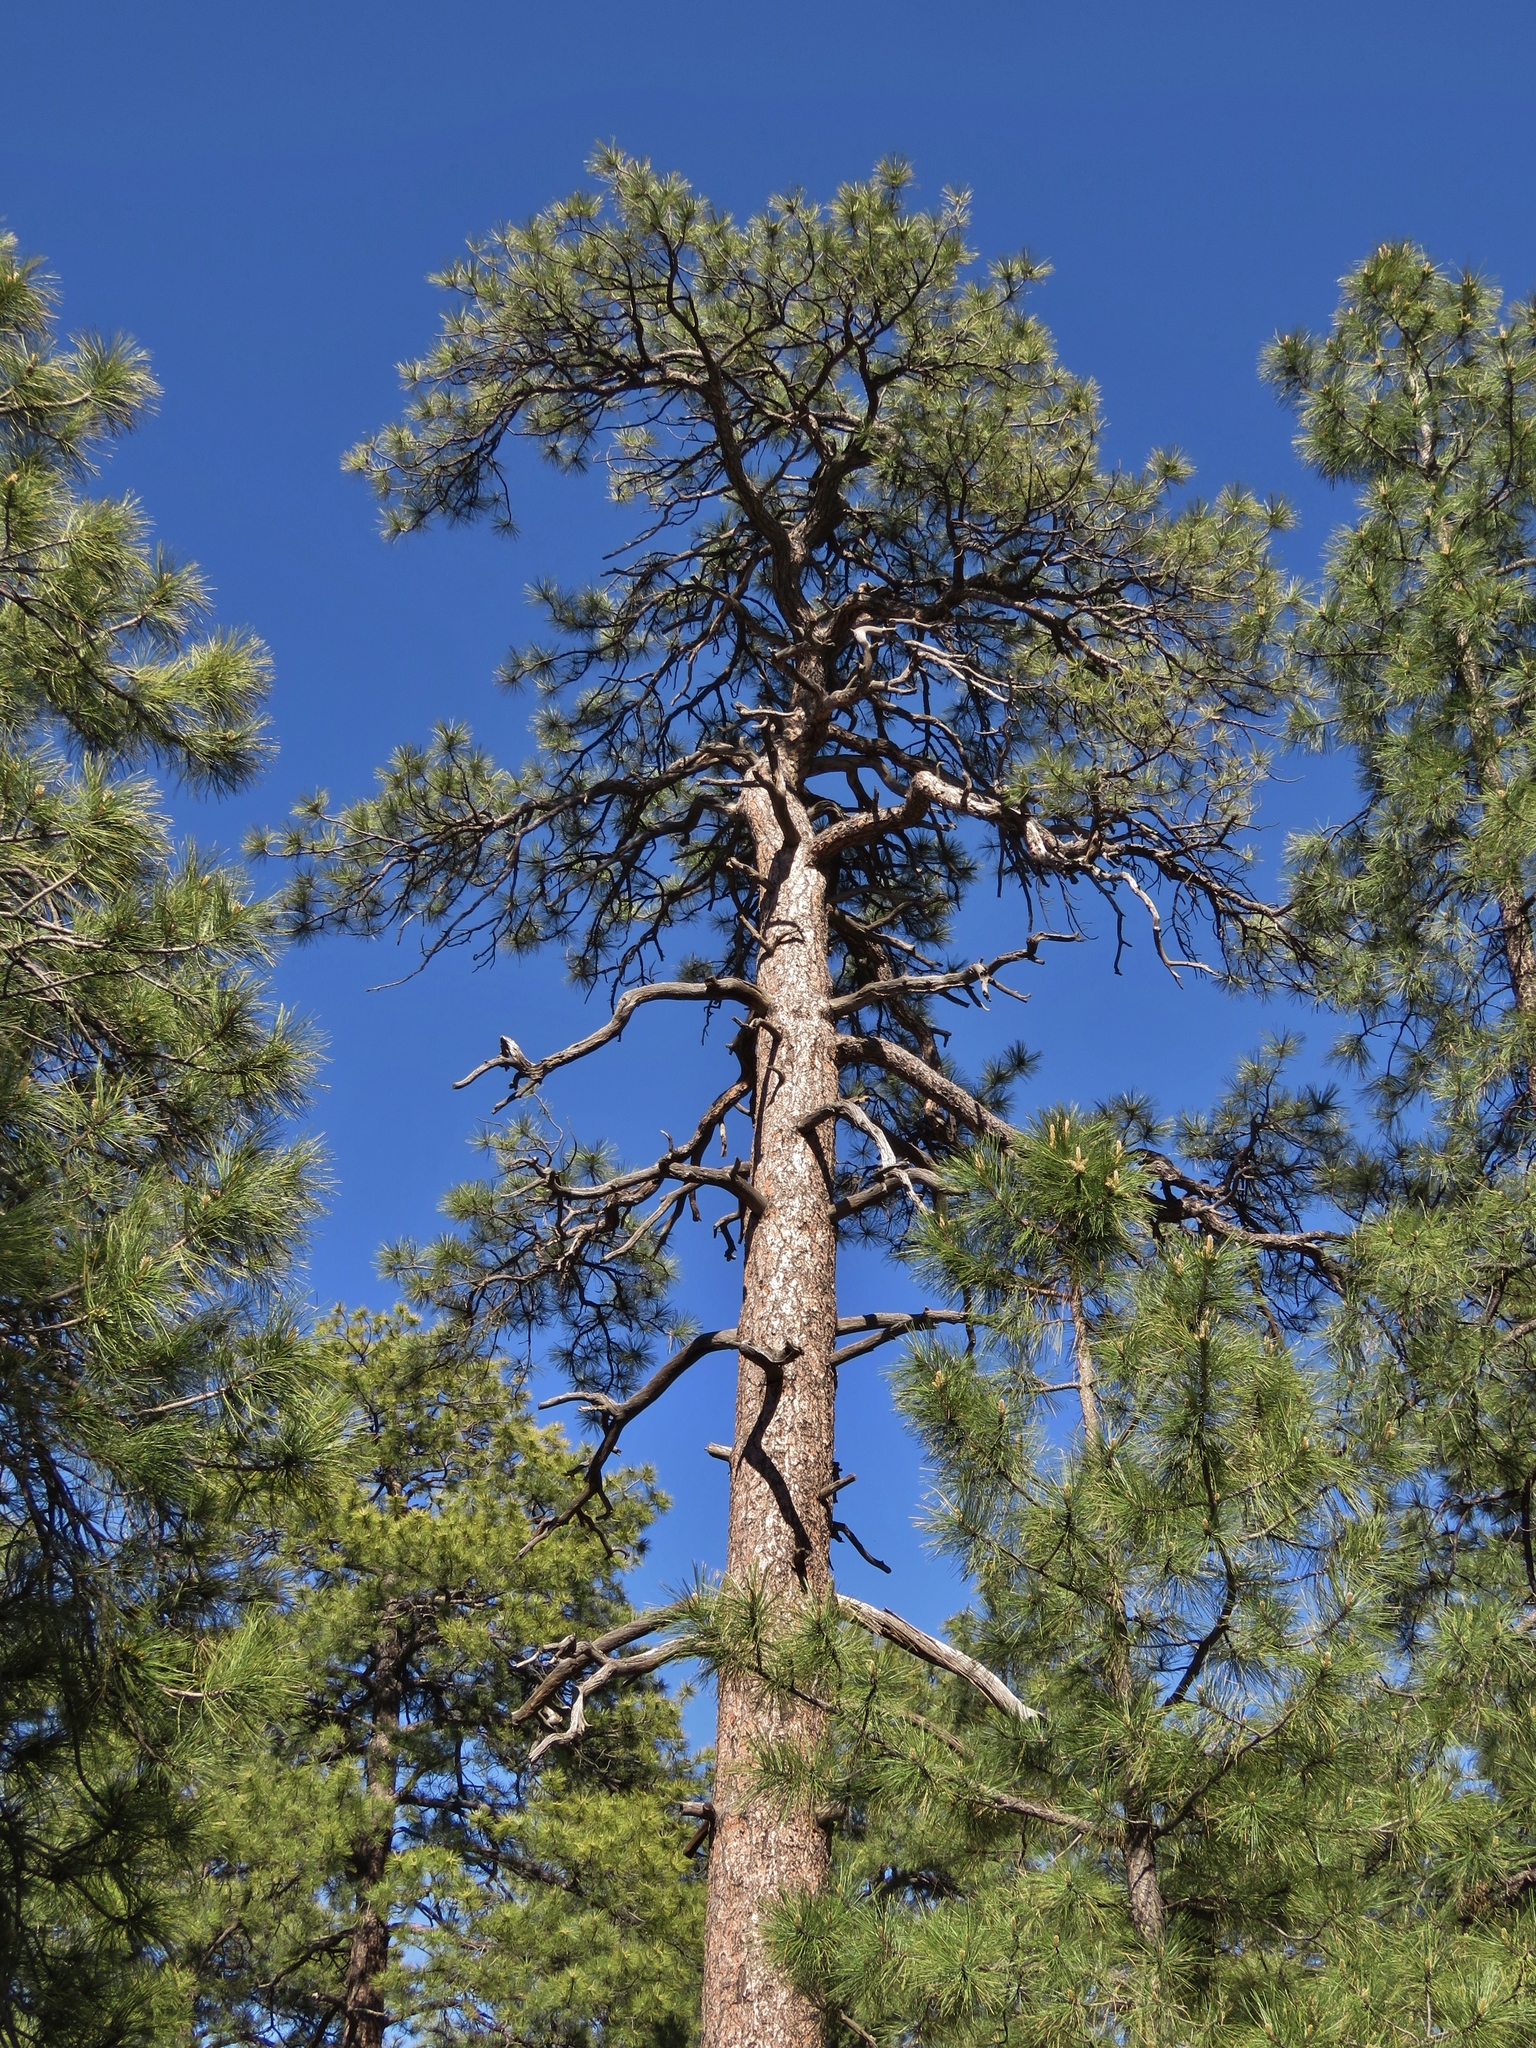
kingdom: Plantae
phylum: Tracheophyta
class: Pinopsida
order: Pinales
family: Pinaceae
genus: Pinus
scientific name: Pinus ponderosa
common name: Western yellow-pine
